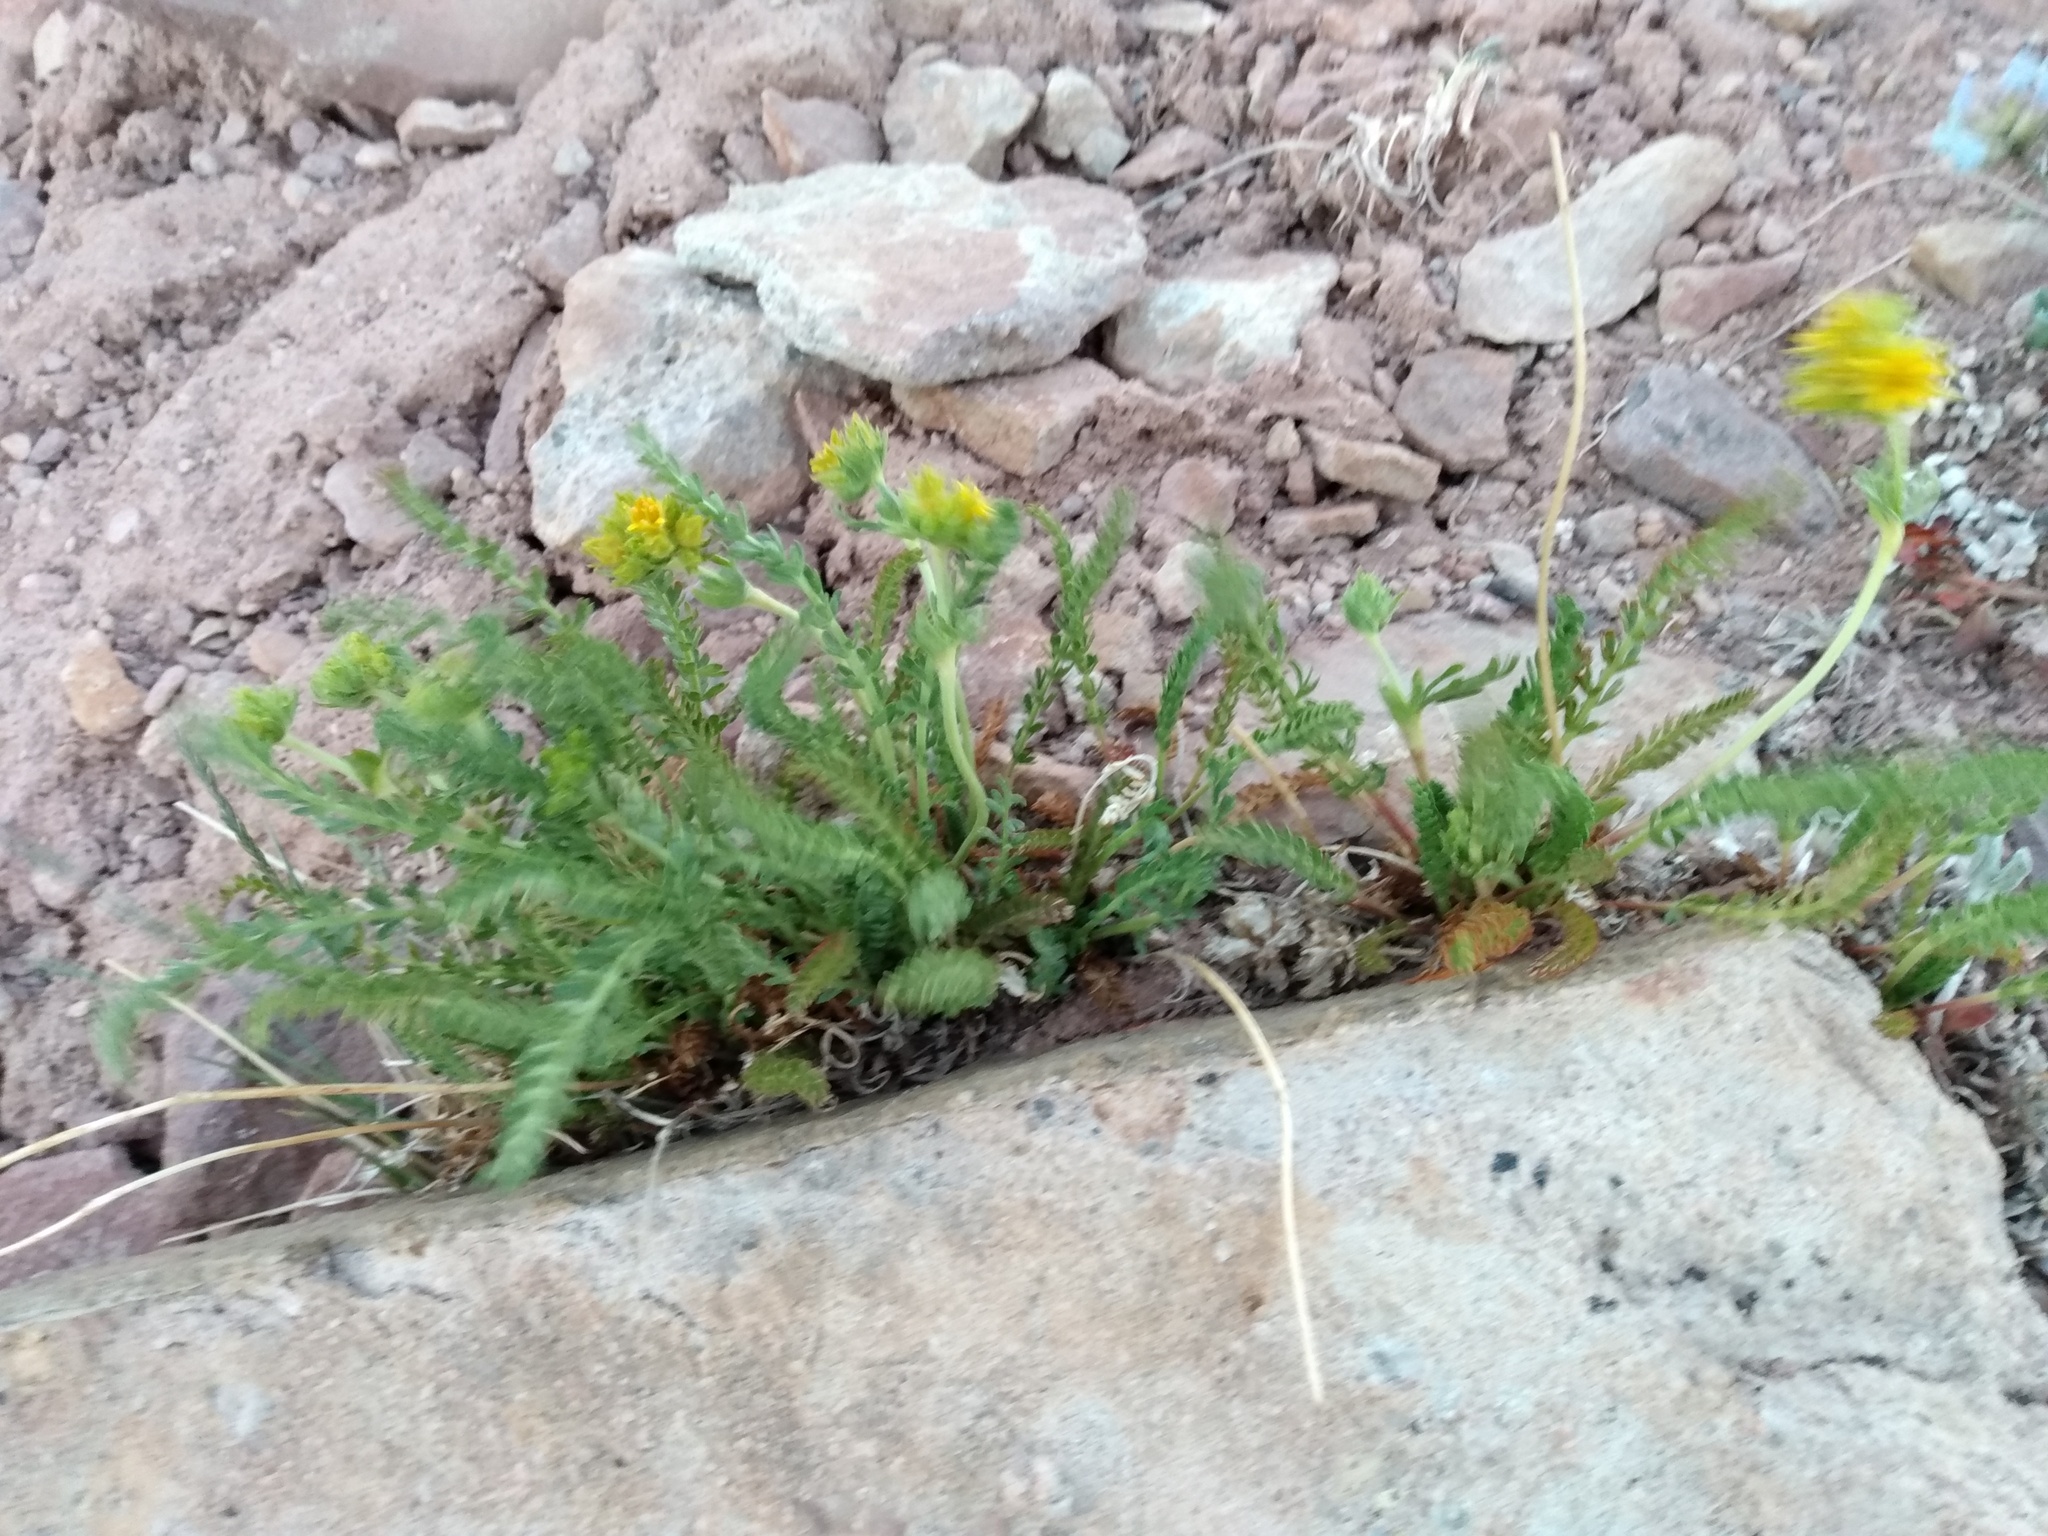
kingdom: Plantae
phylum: Tracheophyta
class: Magnoliopsida
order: Rosales
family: Rosaceae
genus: Potentilla
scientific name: Potentilla gordonii
